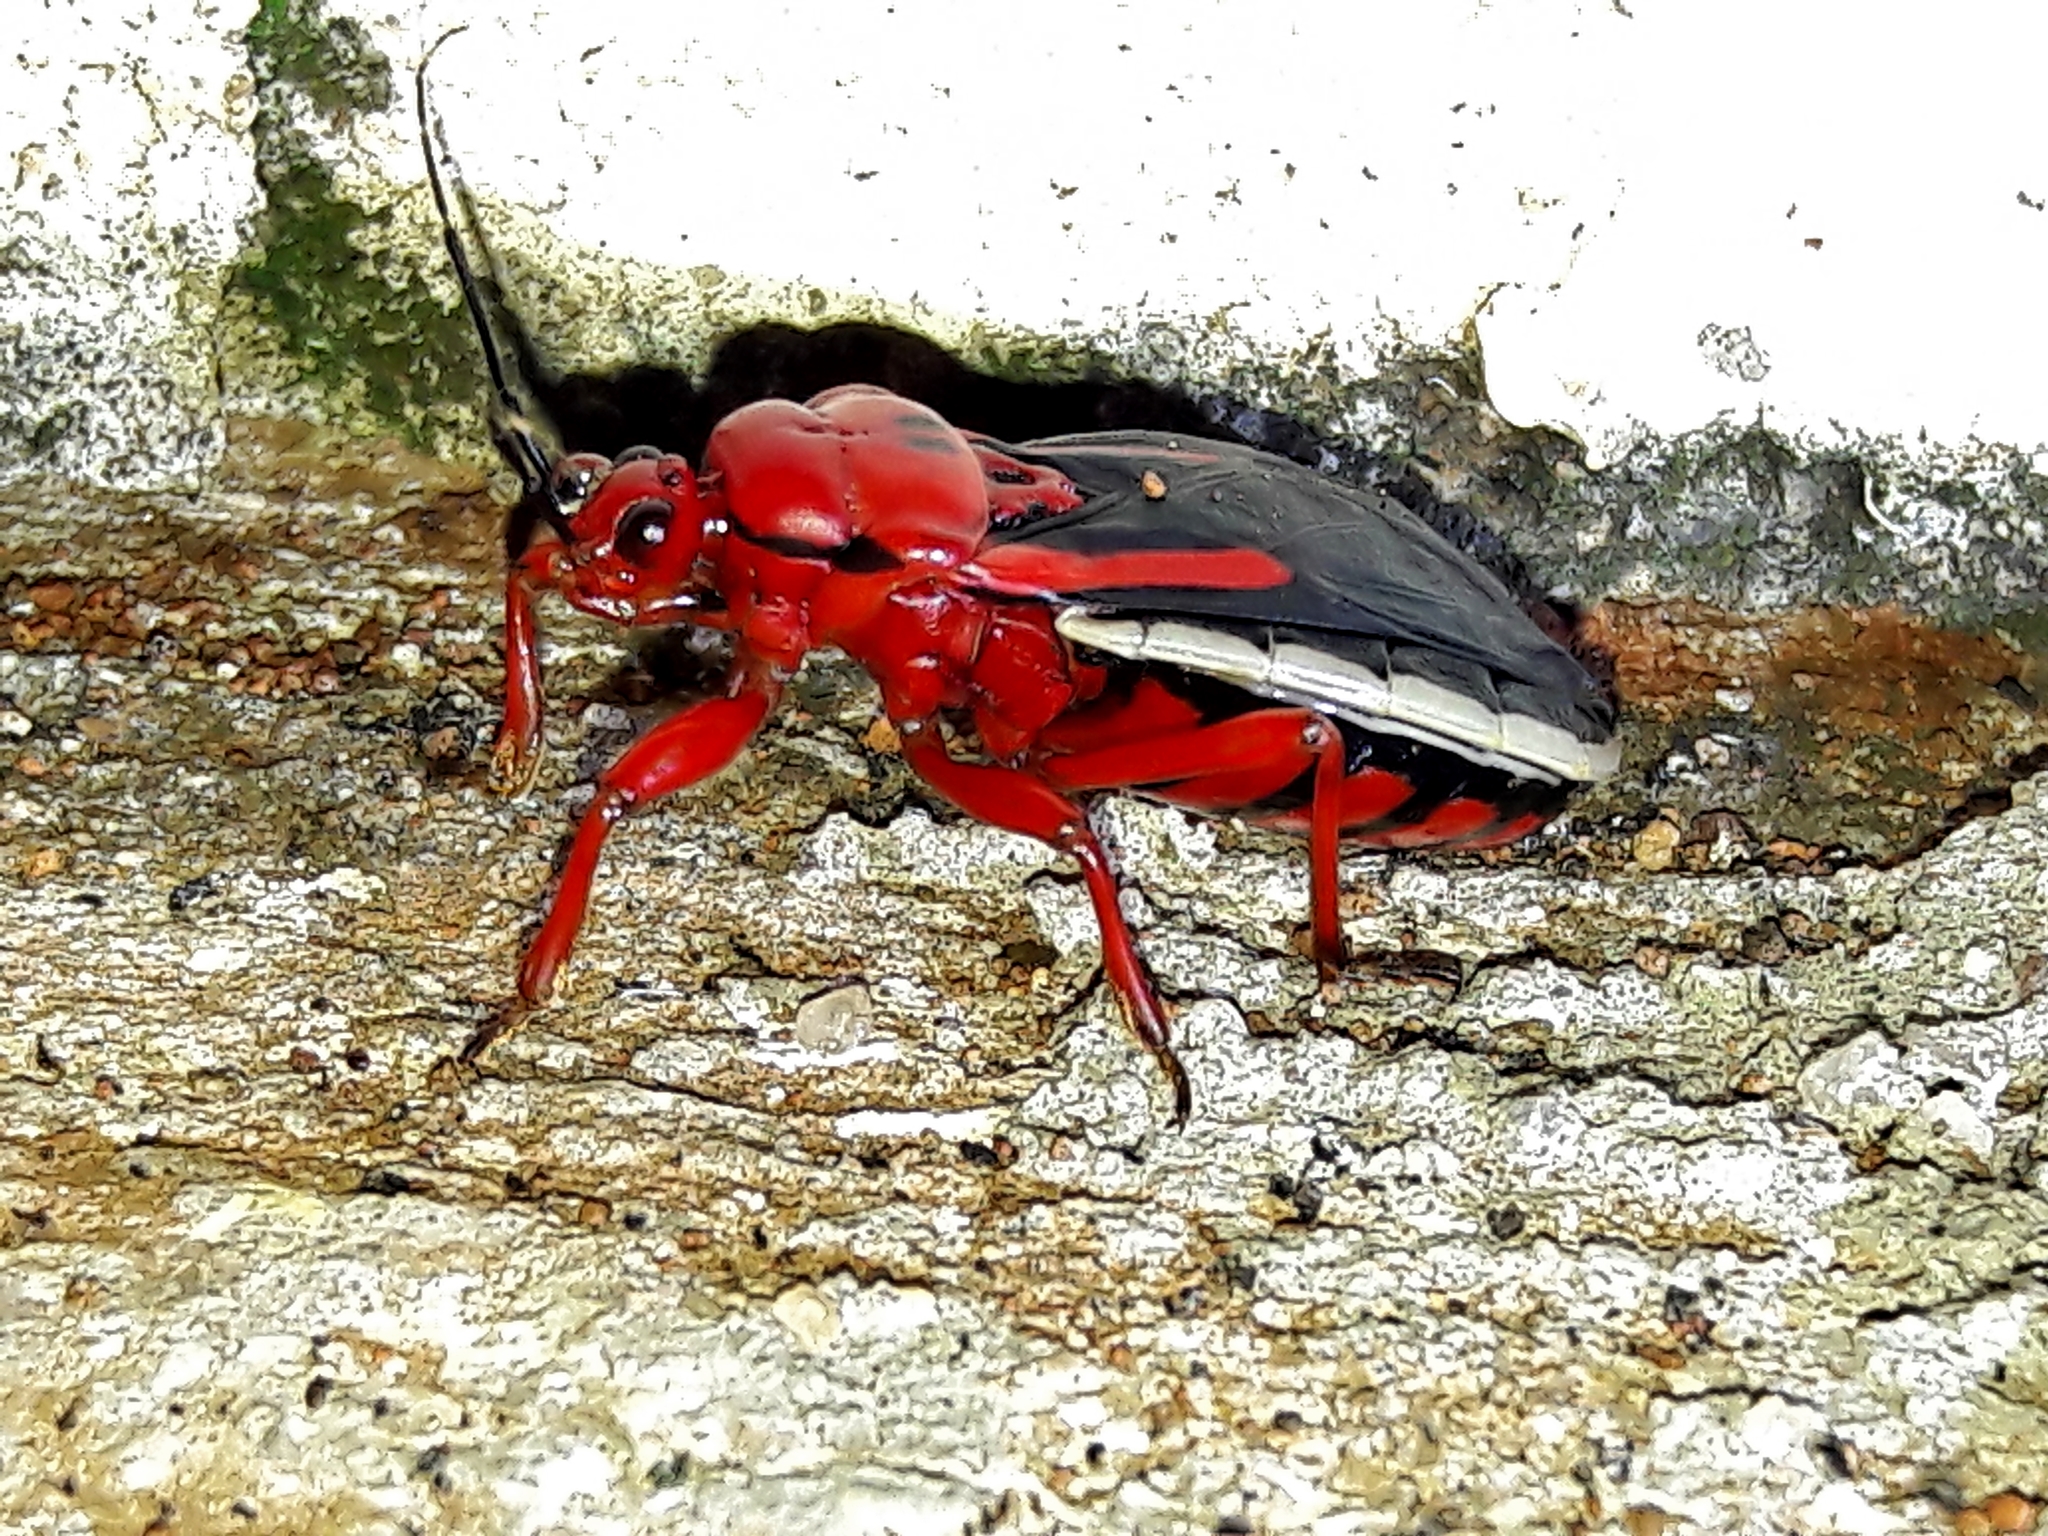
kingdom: Animalia
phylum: Arthropoda
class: Insecta
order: Hemiptera
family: Reduviidae
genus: Brontostoma
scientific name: Brontostoma discus
